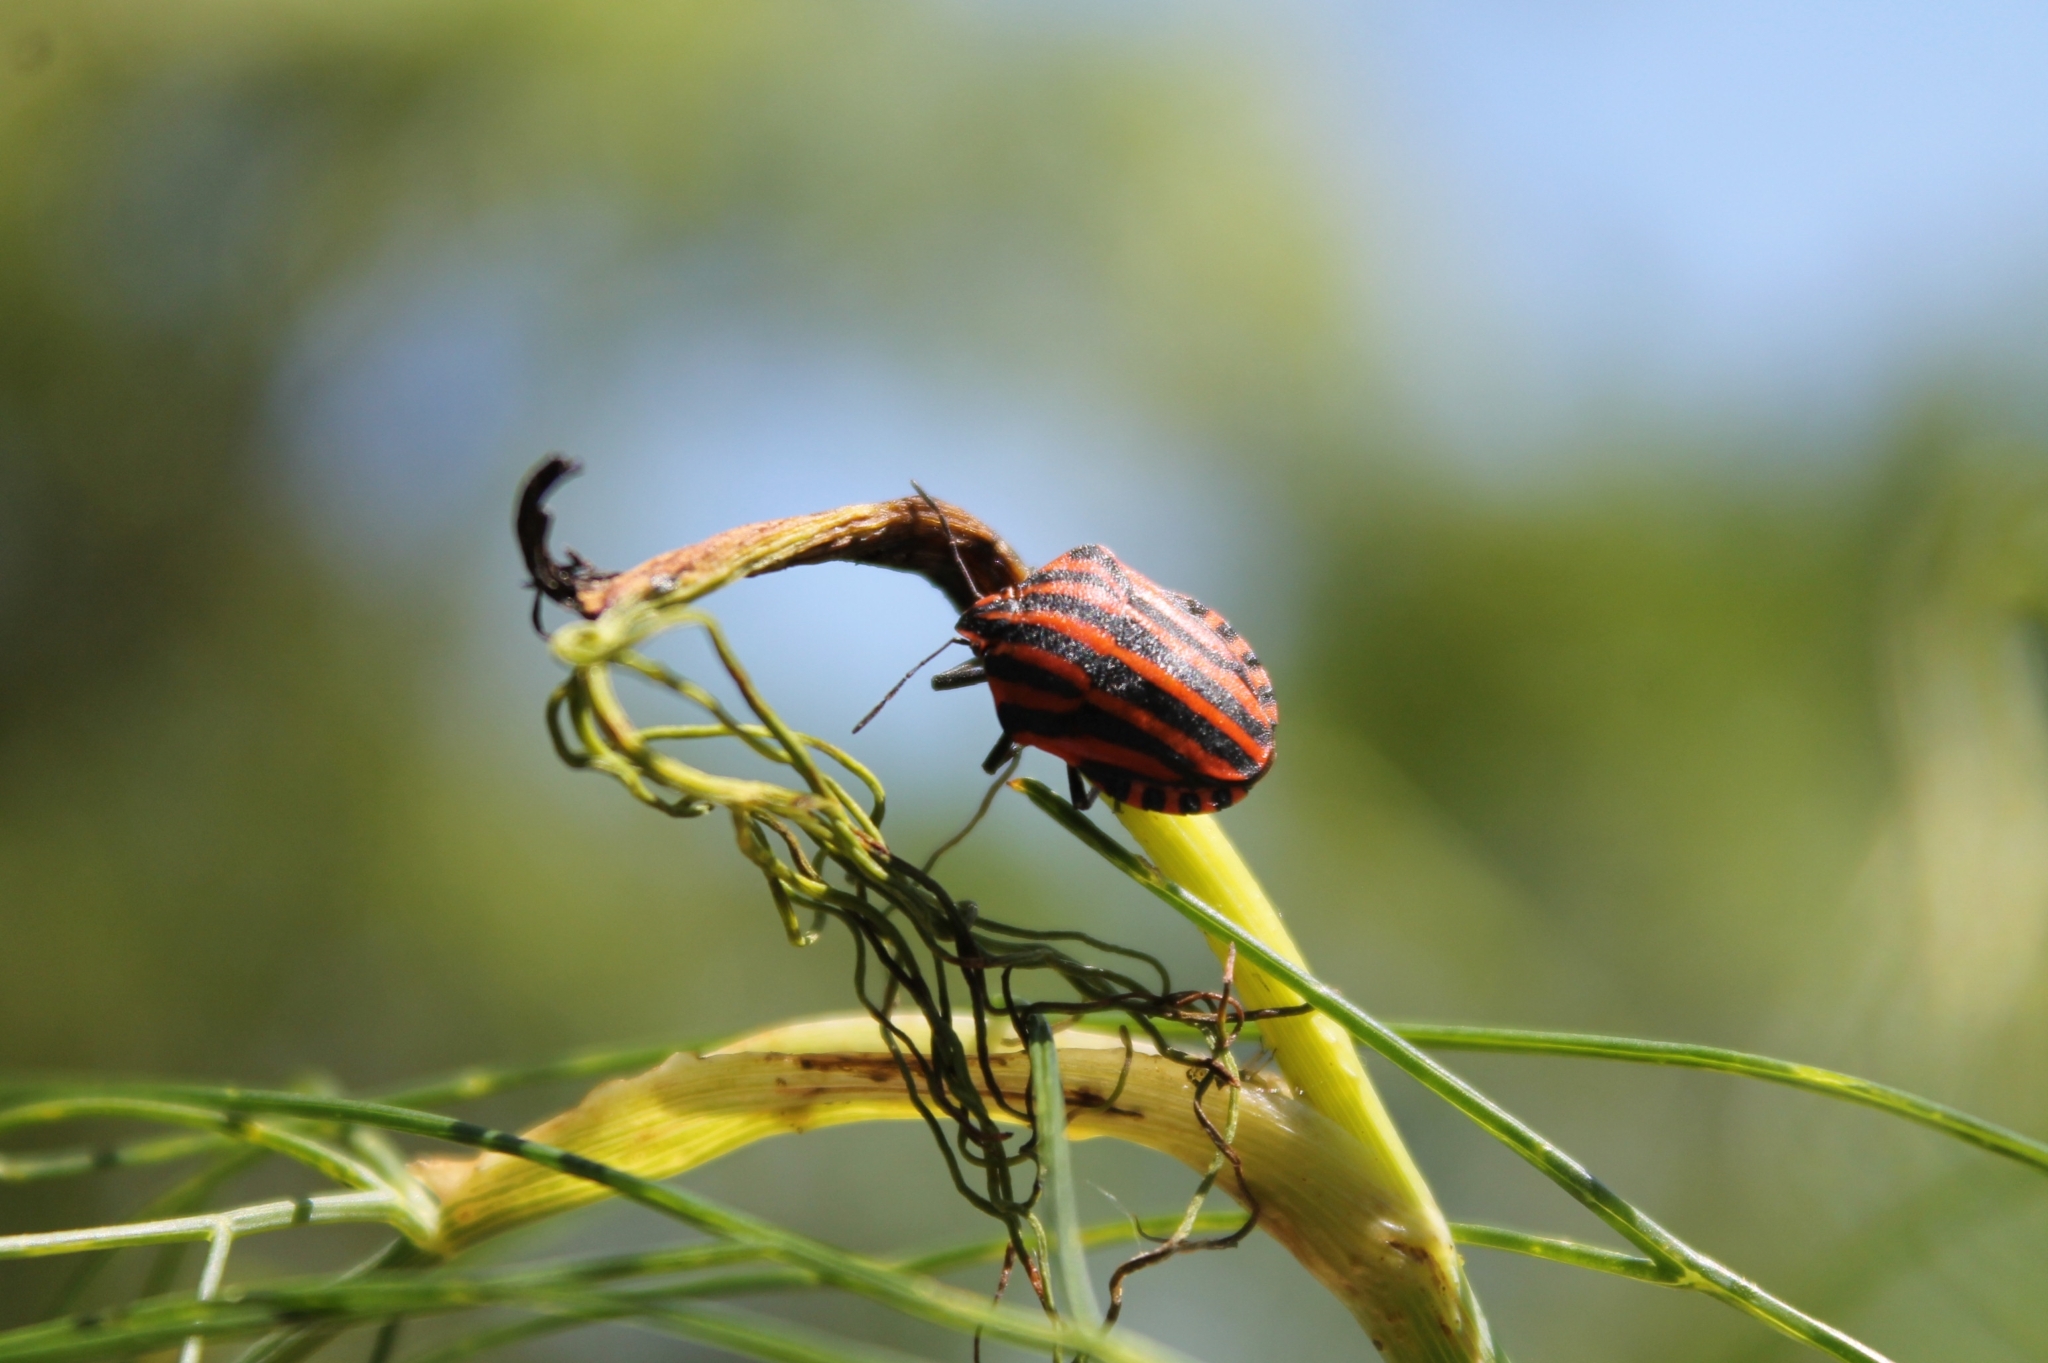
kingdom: Animalia
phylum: Arthropoda
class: Insecta
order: Hemiptera
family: Pentatomidae
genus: Graphosoma
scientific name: Graphosoma italicum
